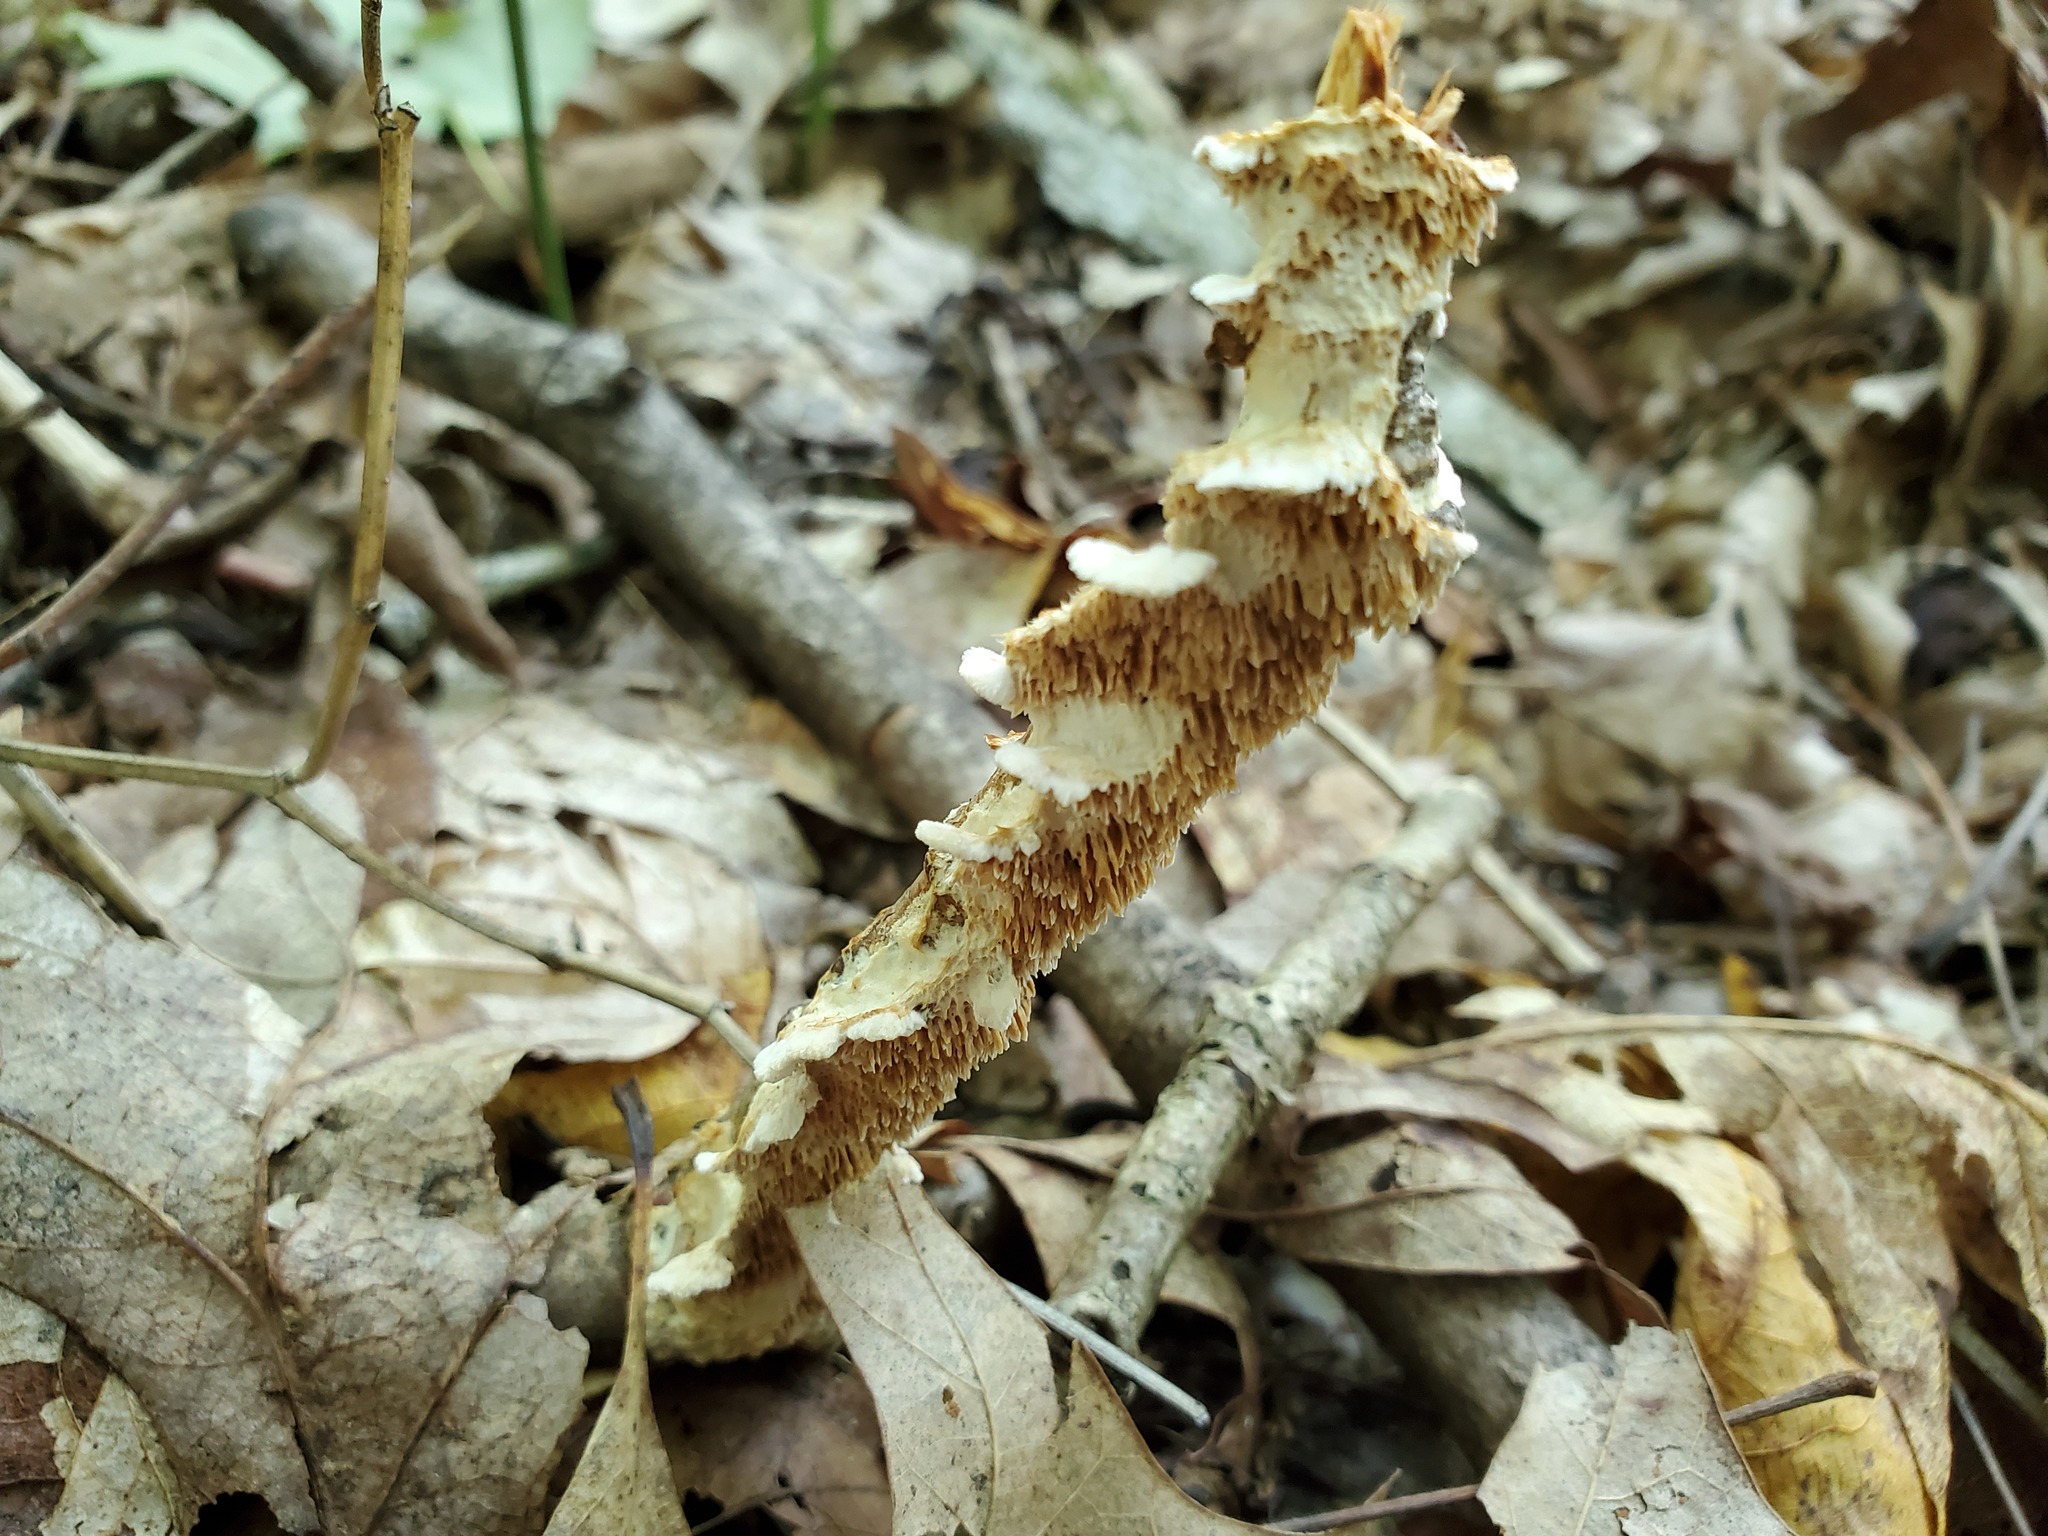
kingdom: Fungi
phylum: Basidiomycota
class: Agaricomycetes
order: Polyporales
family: Irpicaceae
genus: Irpex
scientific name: Irpex lacteus
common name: Milk-white toothed polypore
